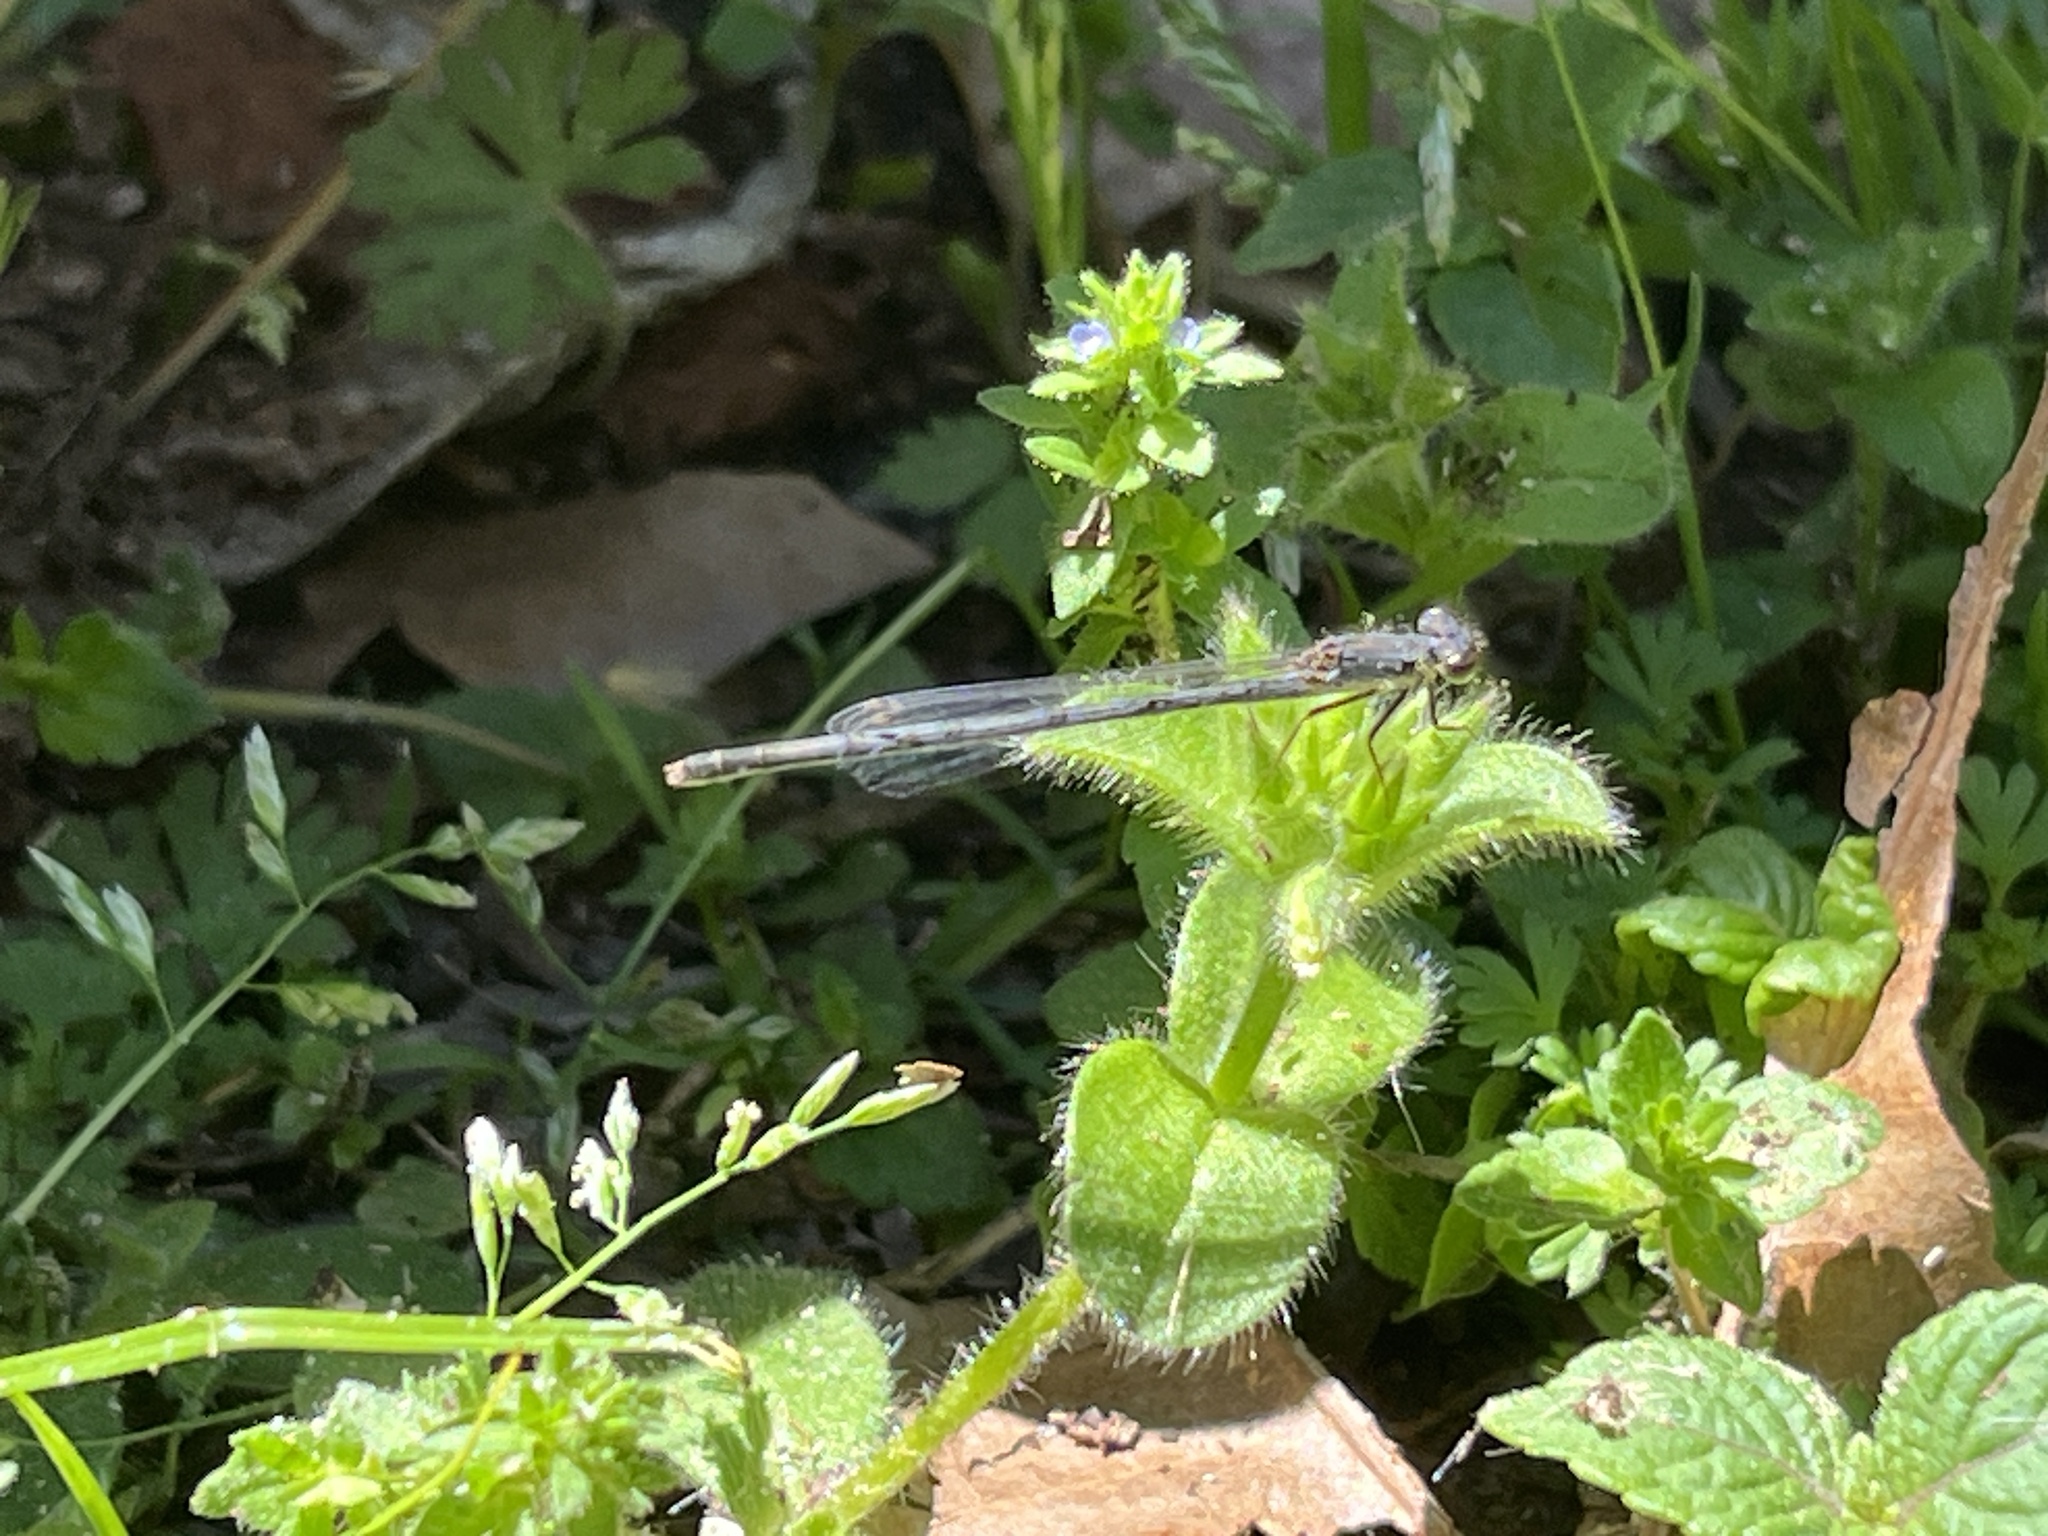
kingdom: Animalia
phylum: Arthropoda
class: Insecta
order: Odonata
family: Coenagrionidae
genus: Ischnura
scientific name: Ischnura posita
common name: Fragile forktail
